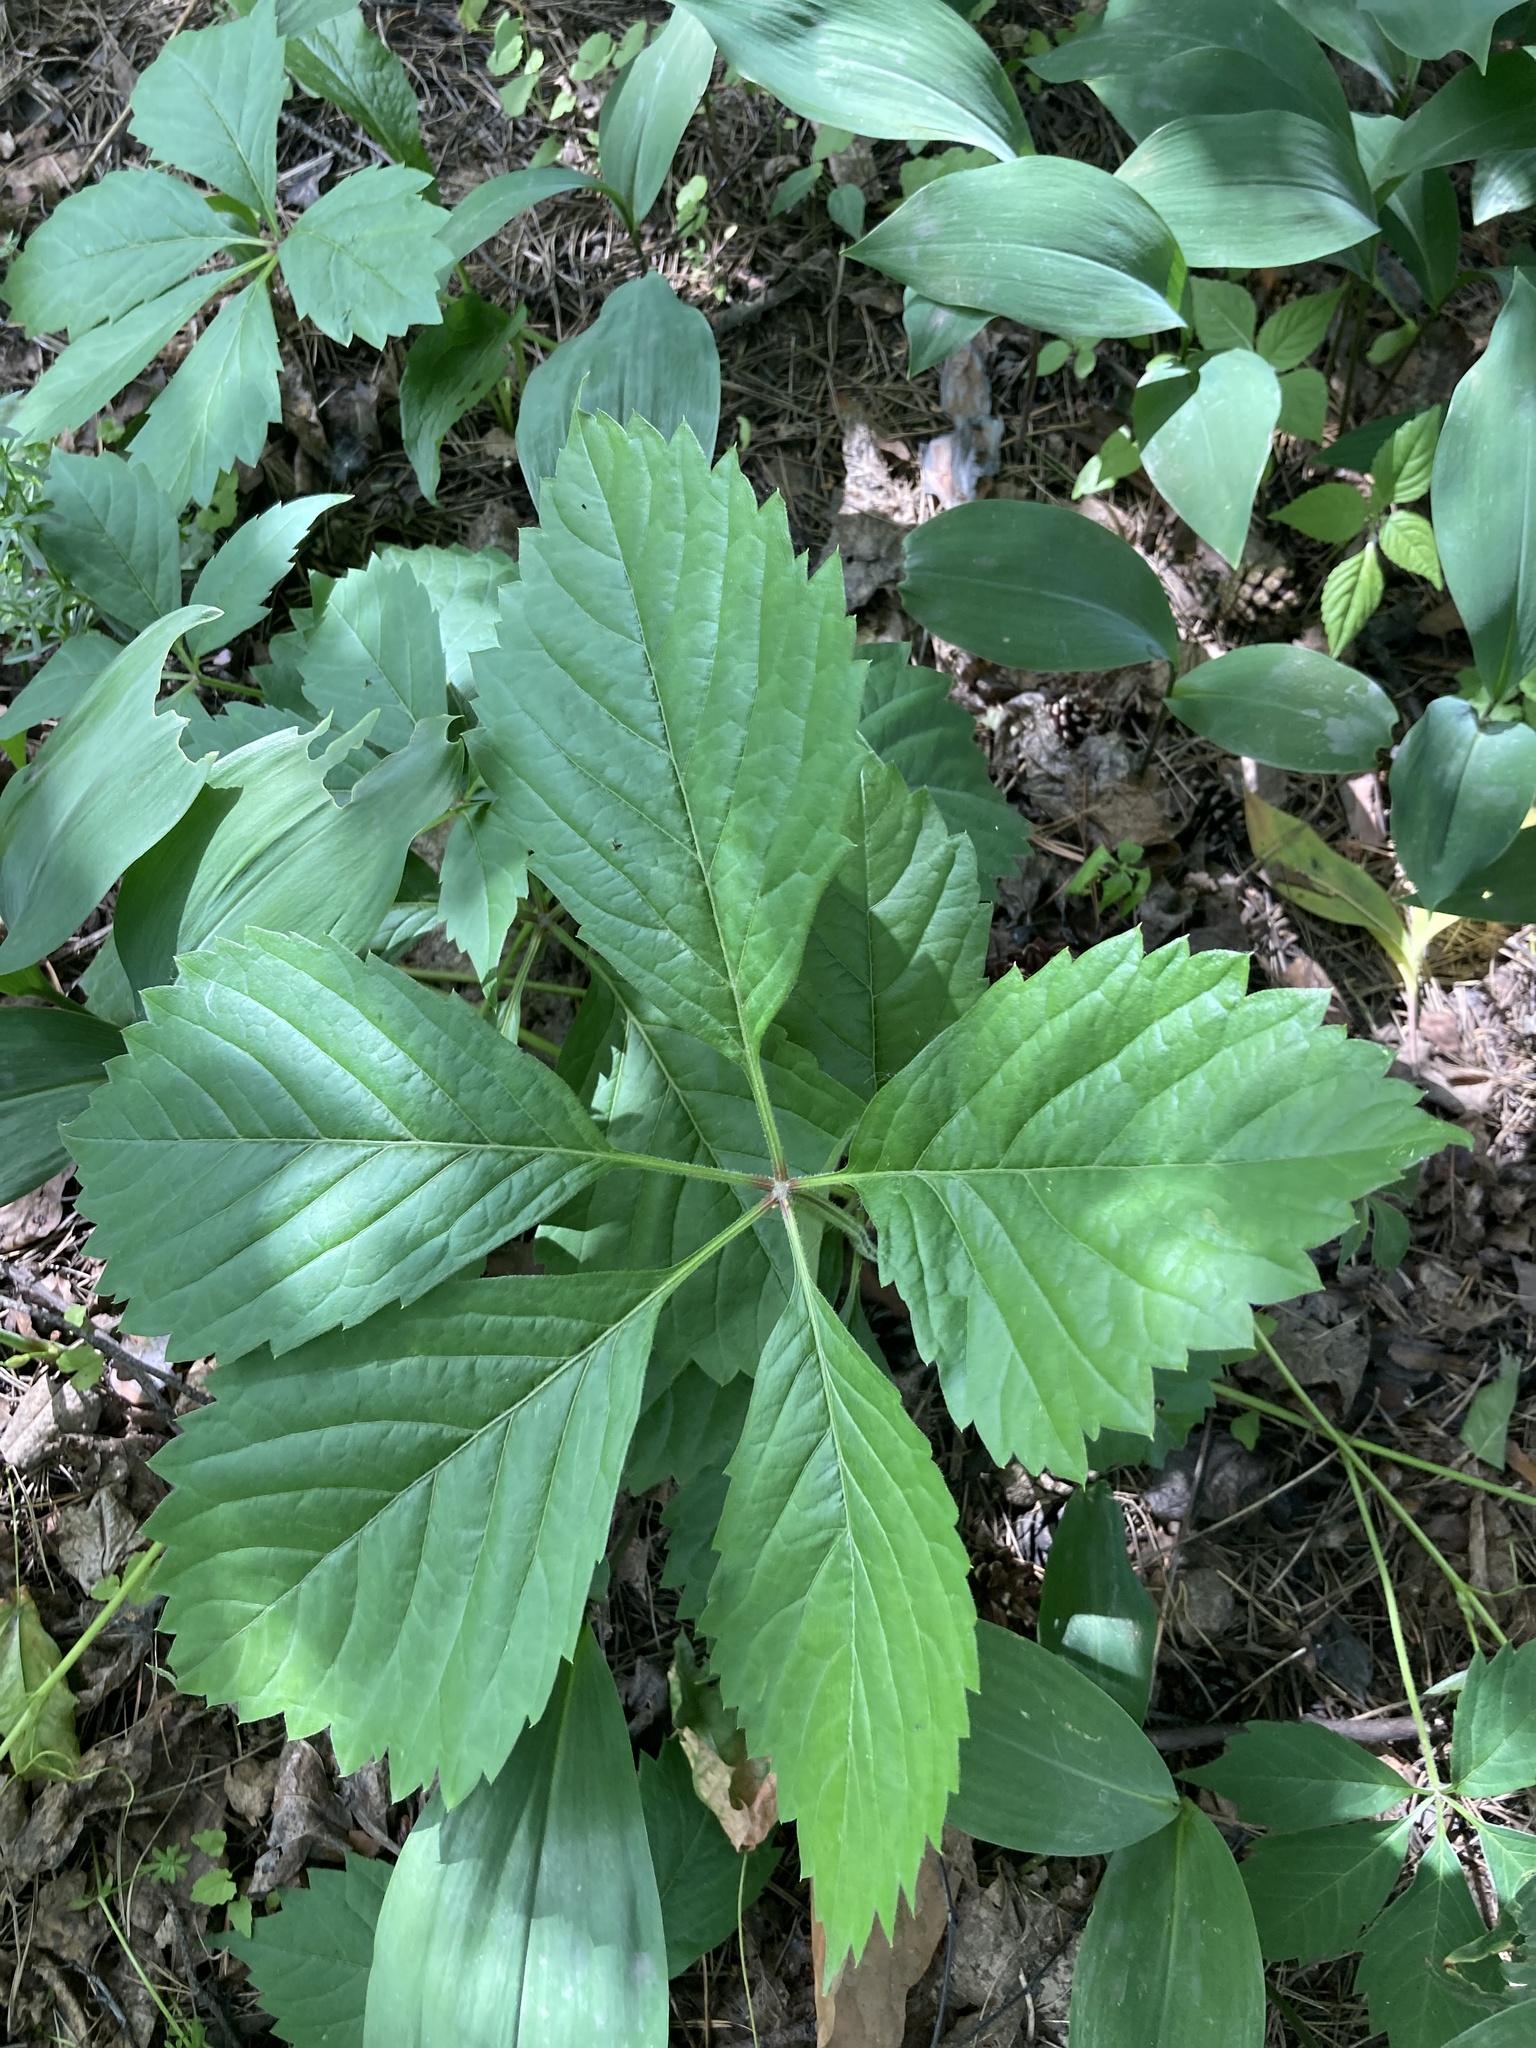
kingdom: Plantae
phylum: Tracheophyta
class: Magnoliopsida
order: Vitales
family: Vitaceae
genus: Parthenocissus
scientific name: Parthenocissus inserta
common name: False virginia-creeper
